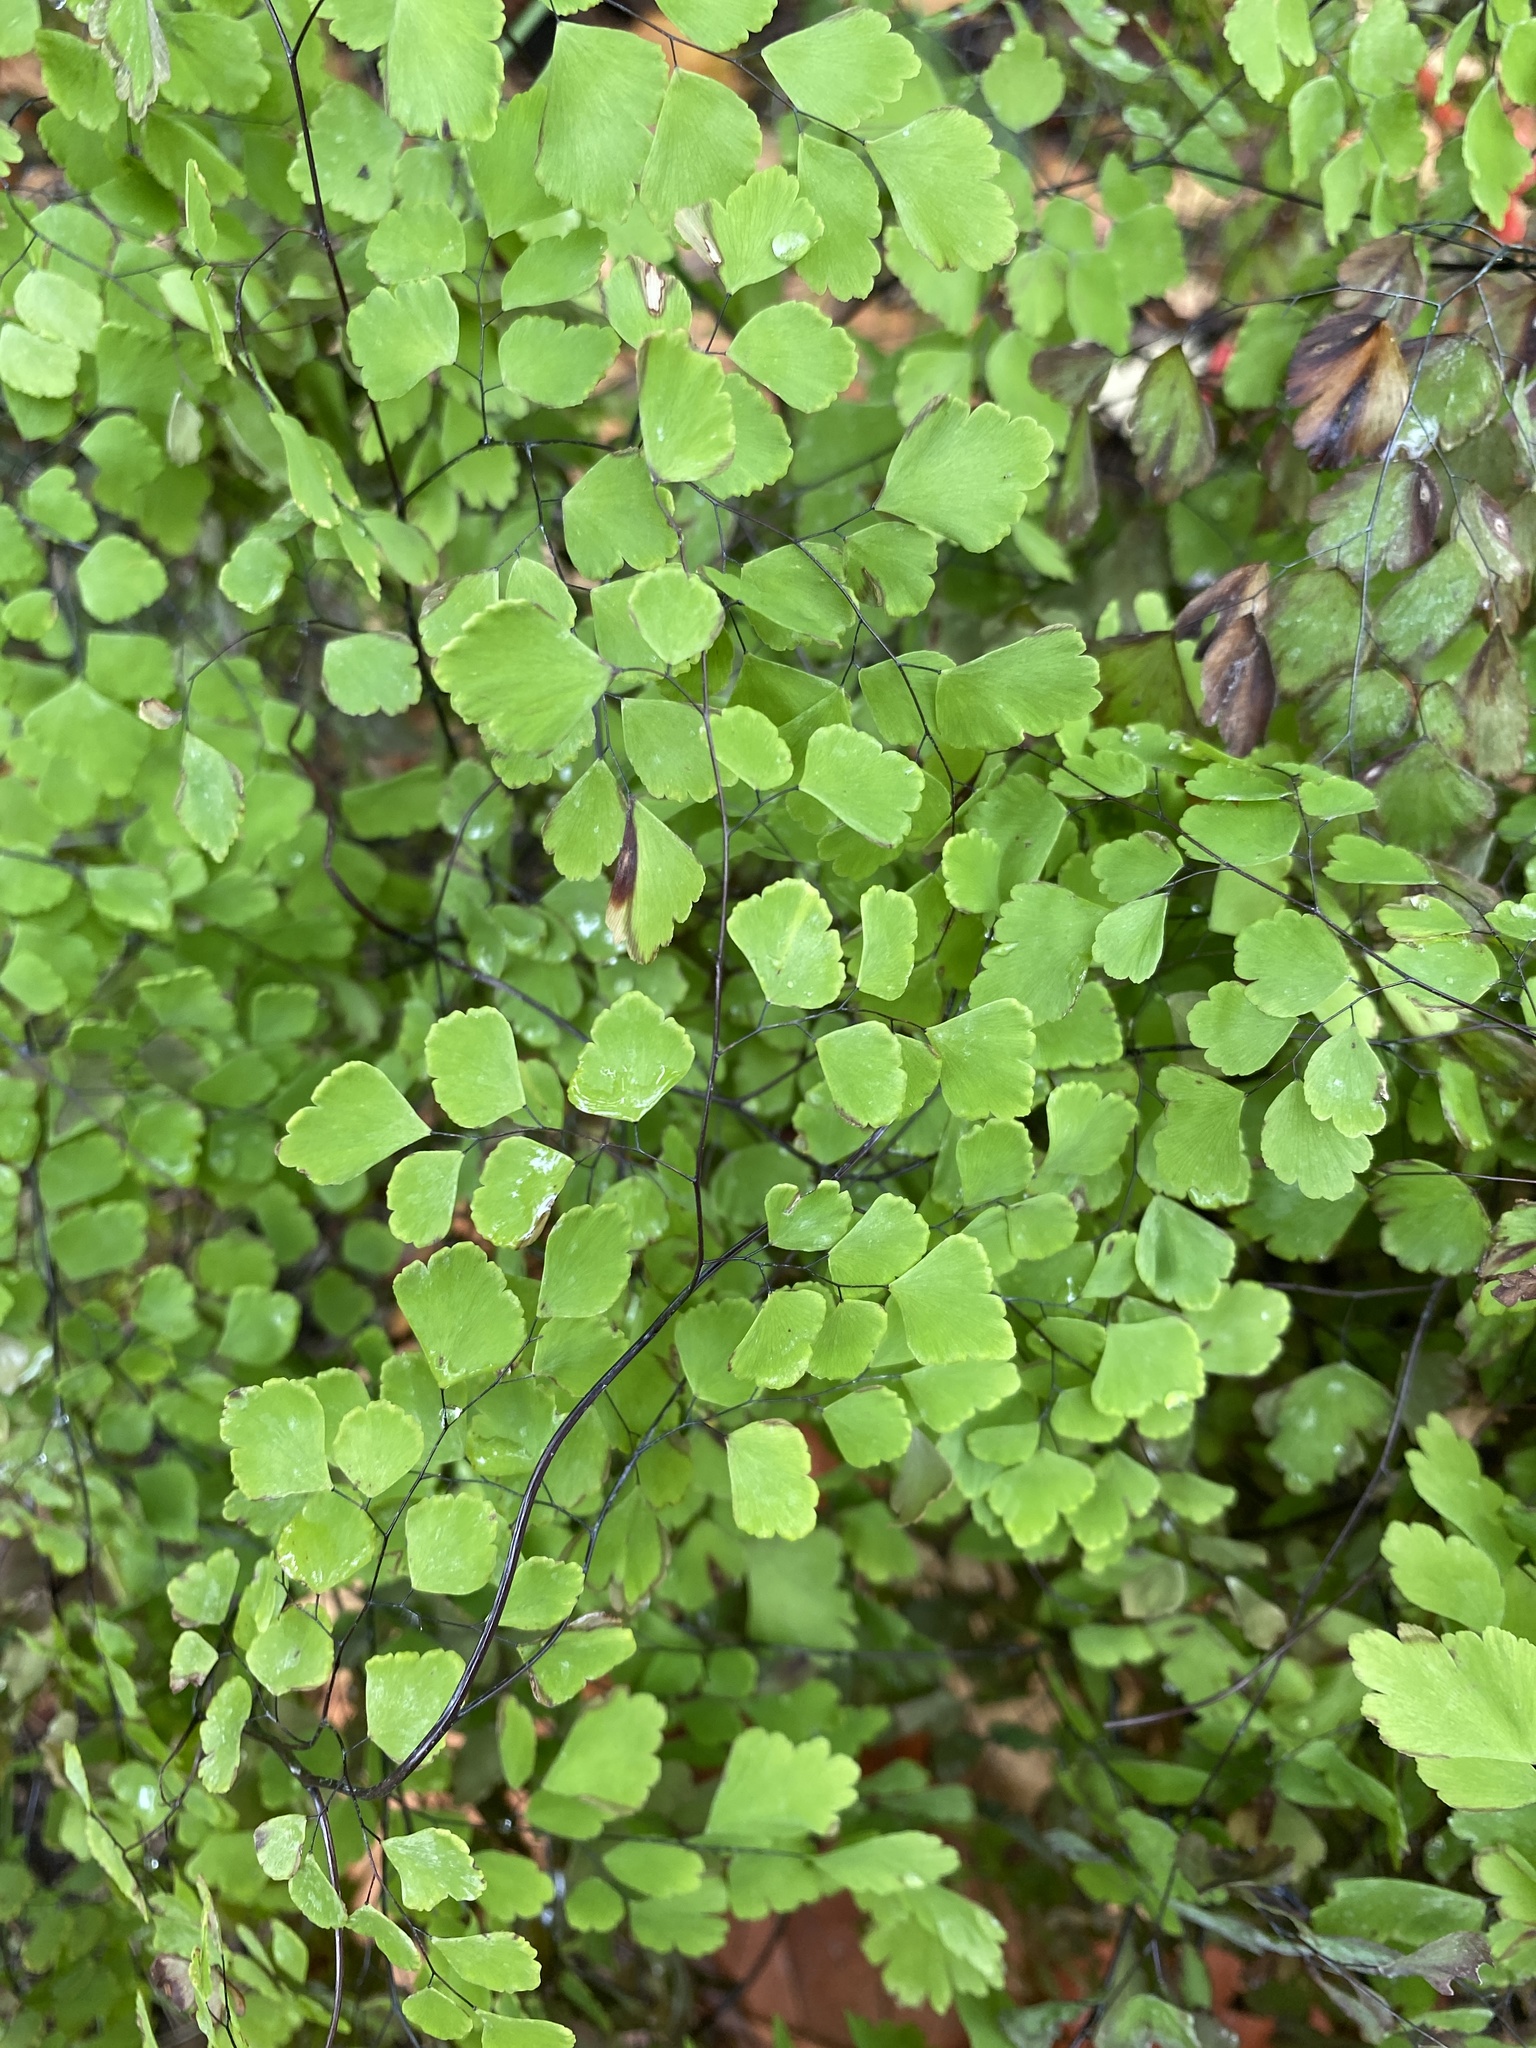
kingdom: Plantae
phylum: Tracheophyta
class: Polypodiopsida
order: Polypodiales
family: Pteridaceae
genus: Adiantum
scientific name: Adiantum tenerum
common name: Fan maidenhair
